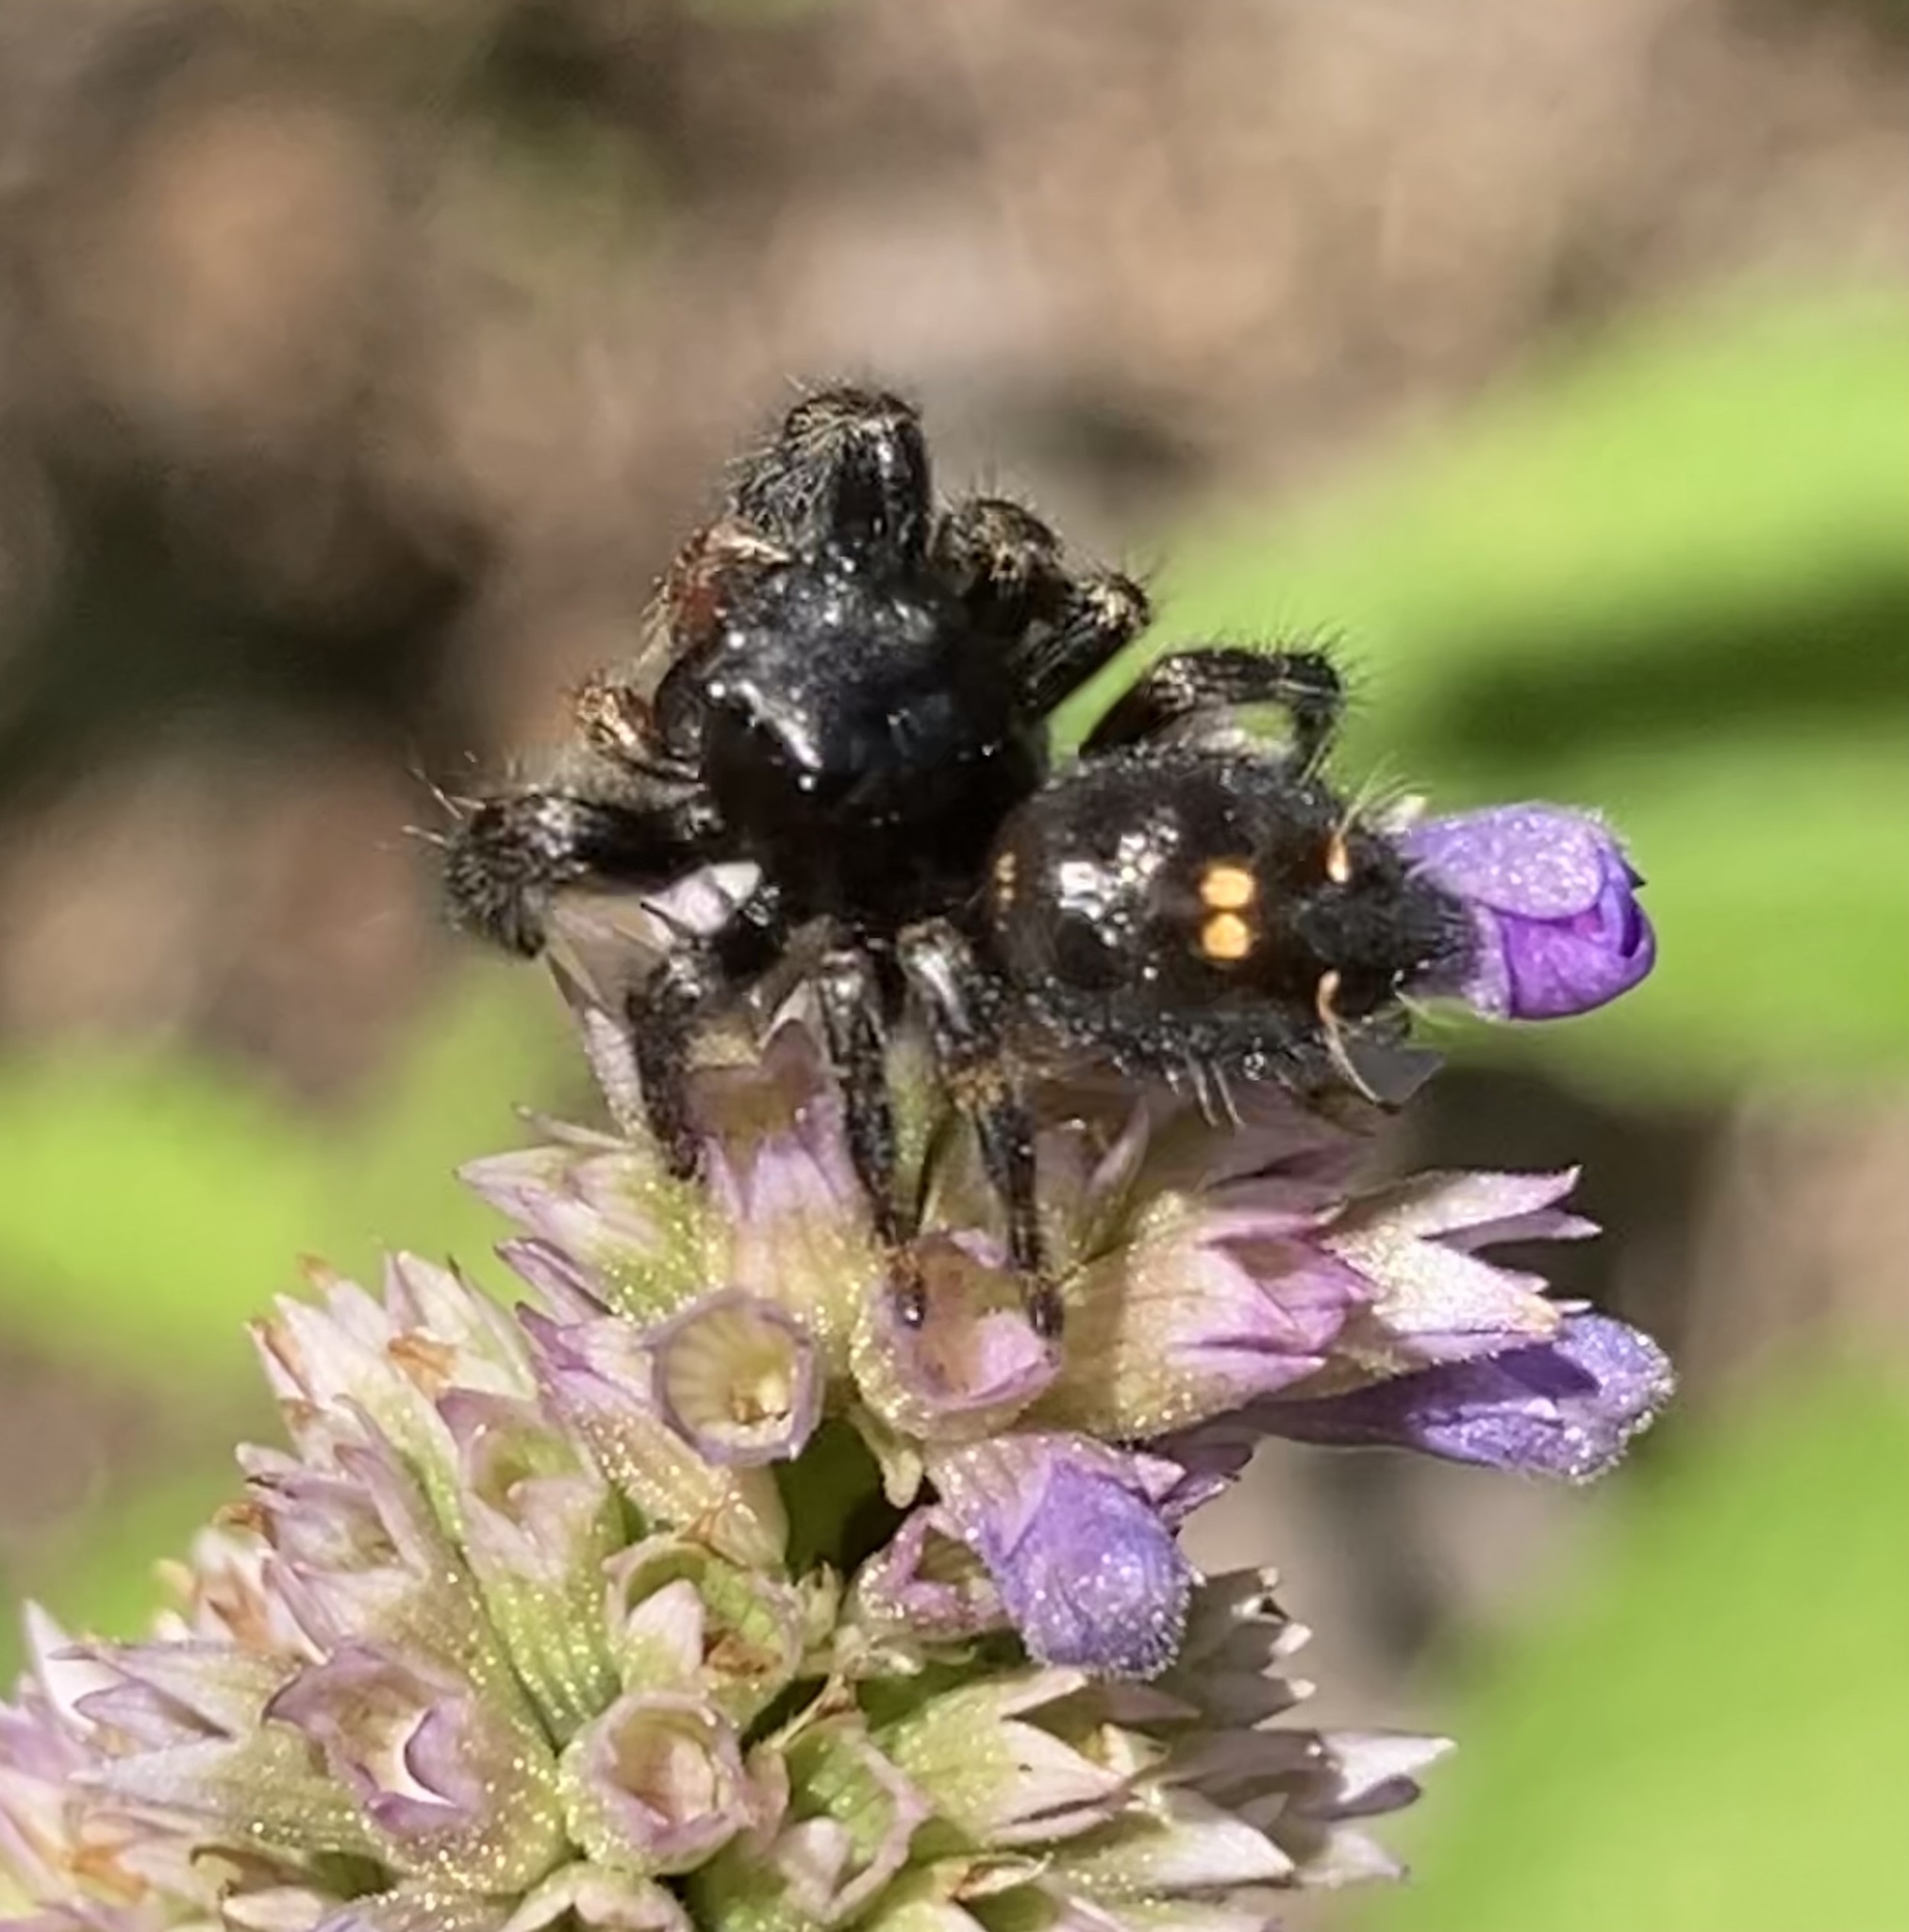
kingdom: Animalia
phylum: Arthropoda
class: Arachnida
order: Araneae
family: Salticidae
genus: Phidippus
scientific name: Phidippus audax
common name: Bold jumper
